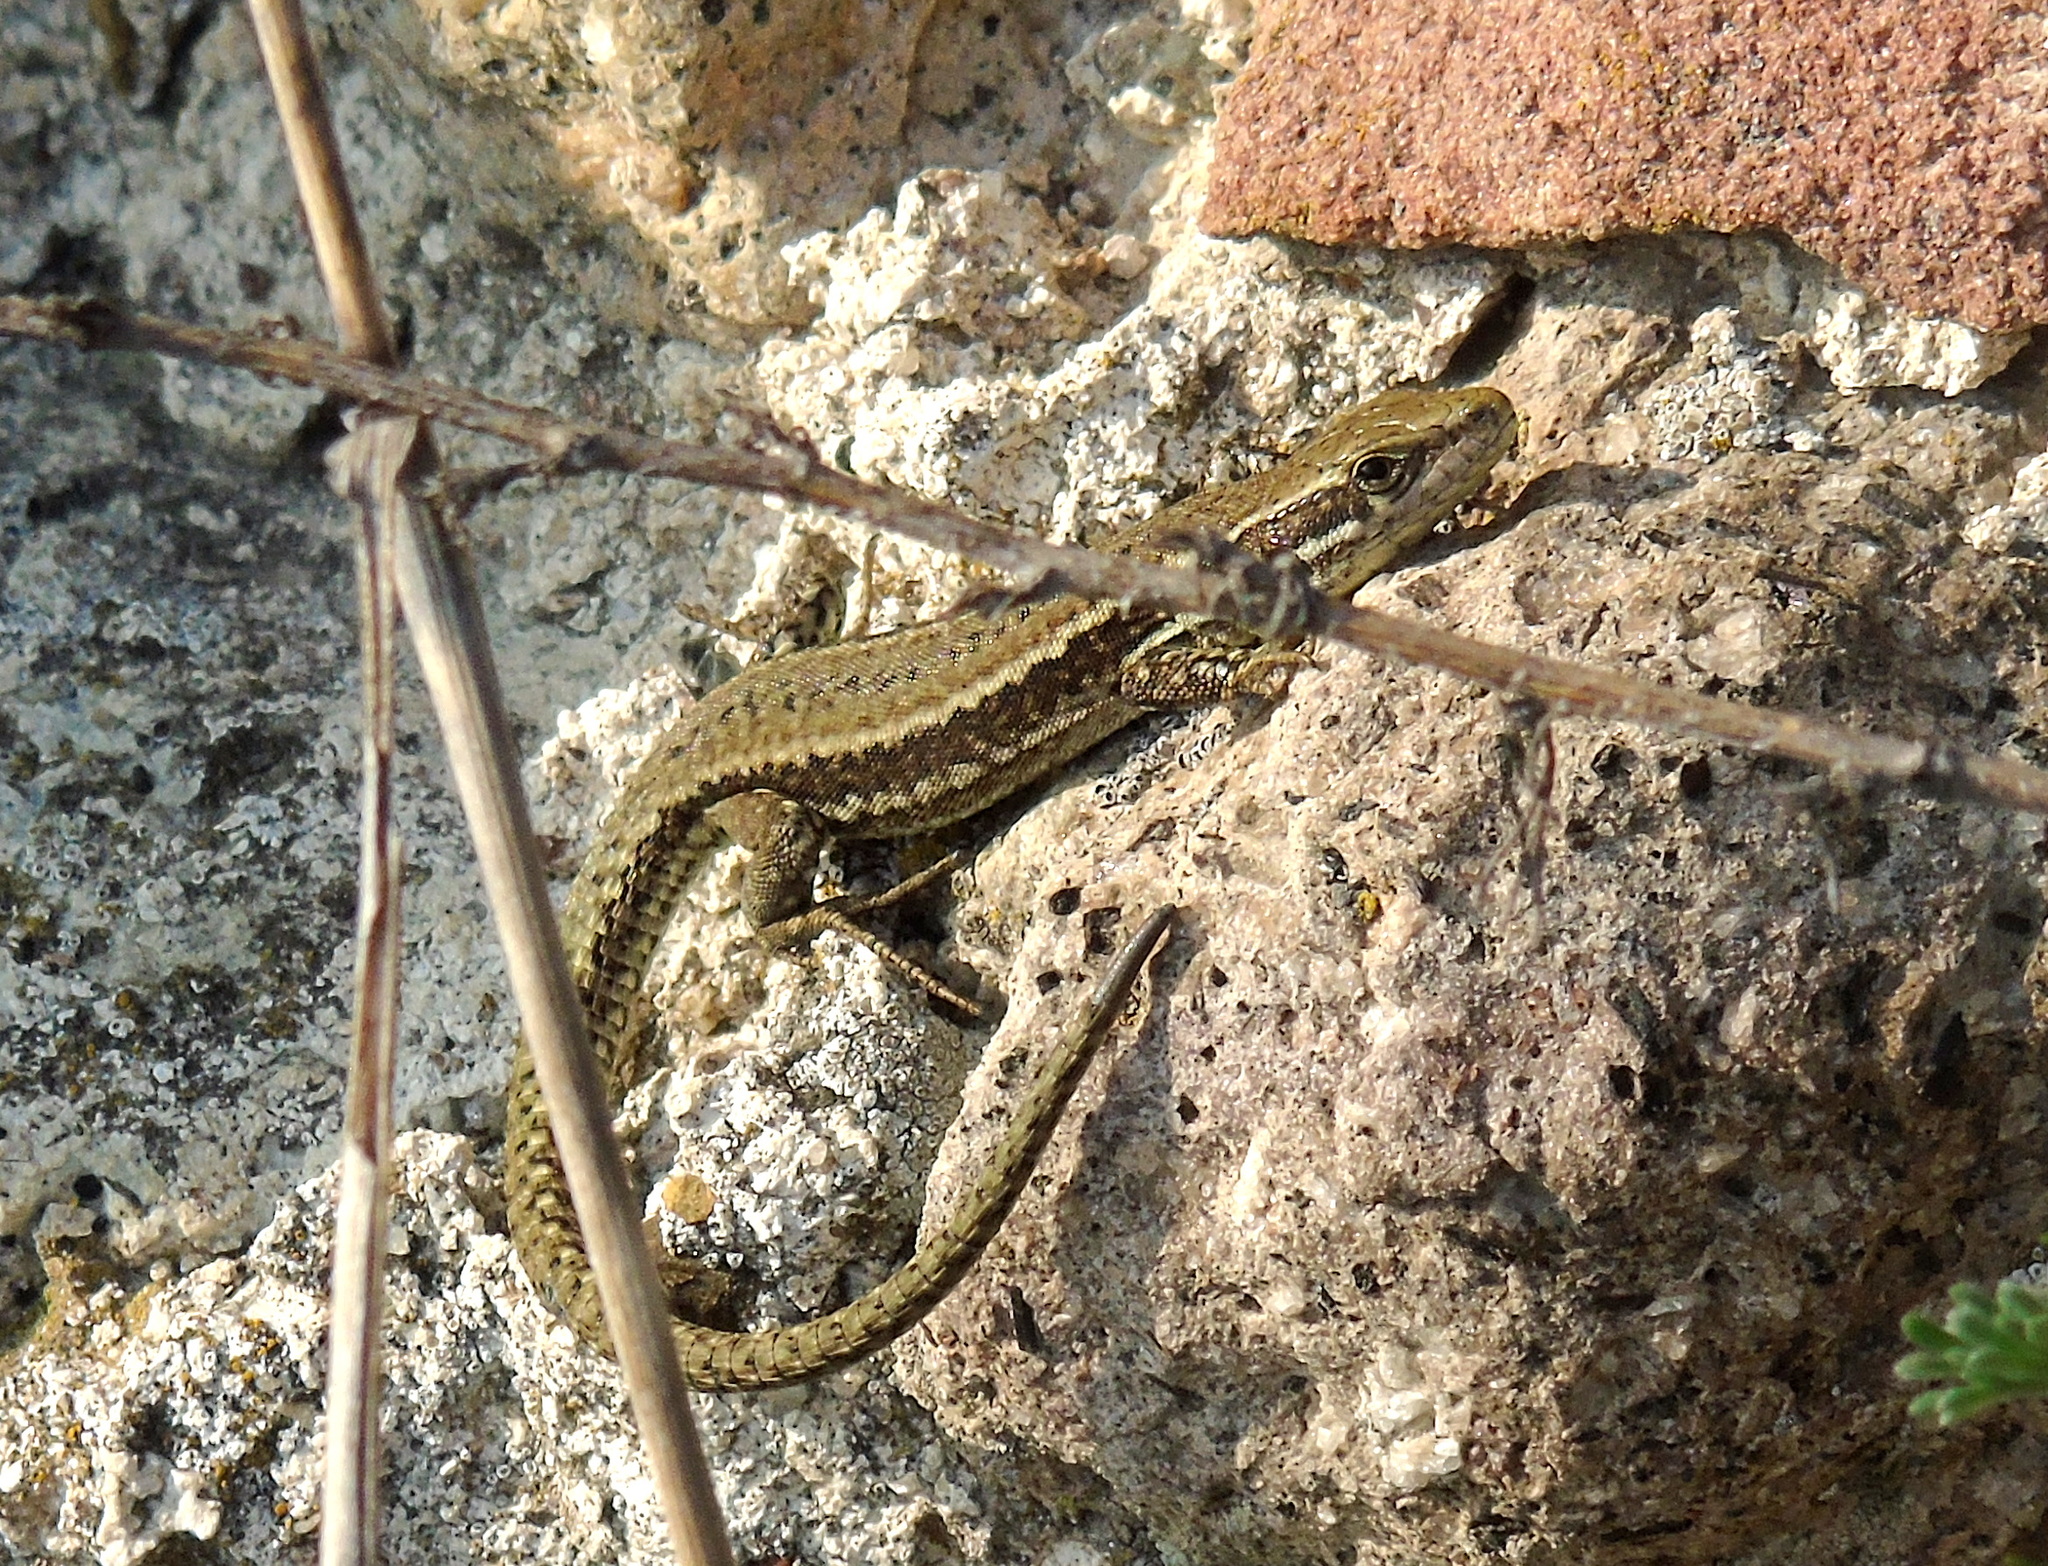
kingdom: Animalia
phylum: Chordata
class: Squamata
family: Lacertidae
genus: Podarcis
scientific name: Podarcis muralis
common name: Common wall lizard
